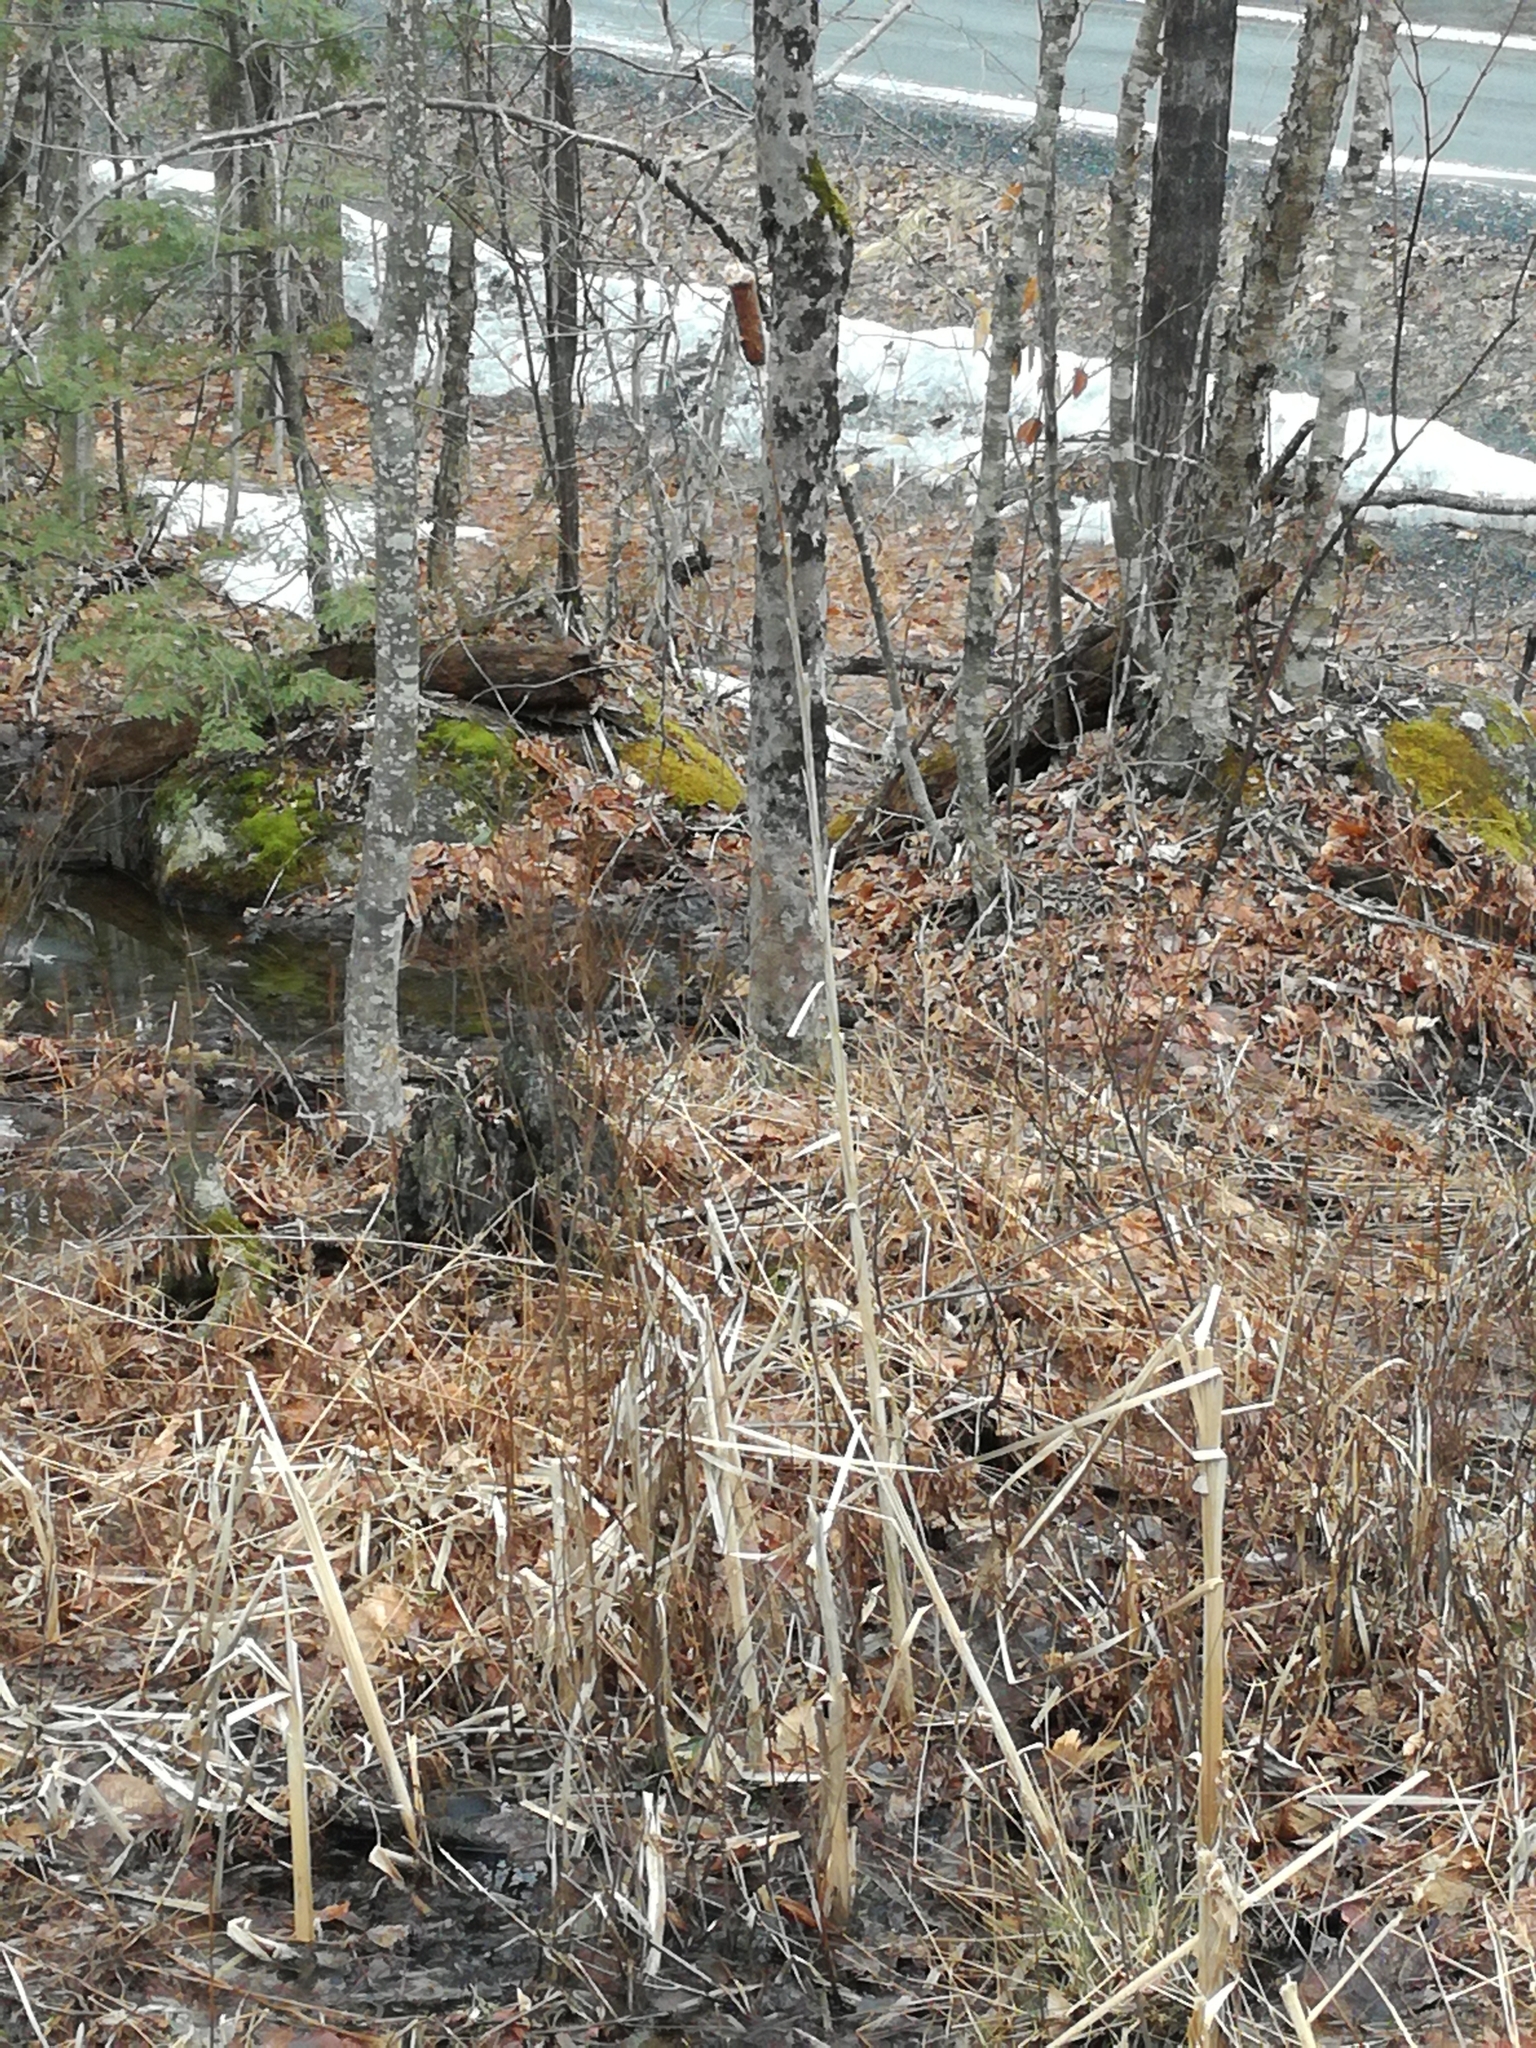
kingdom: Plantae
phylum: Tracheophyta
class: Liliopsida
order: Poales
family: Typhaceae
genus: Typha
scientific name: Typha latifolia
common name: Broadleaf cattail
